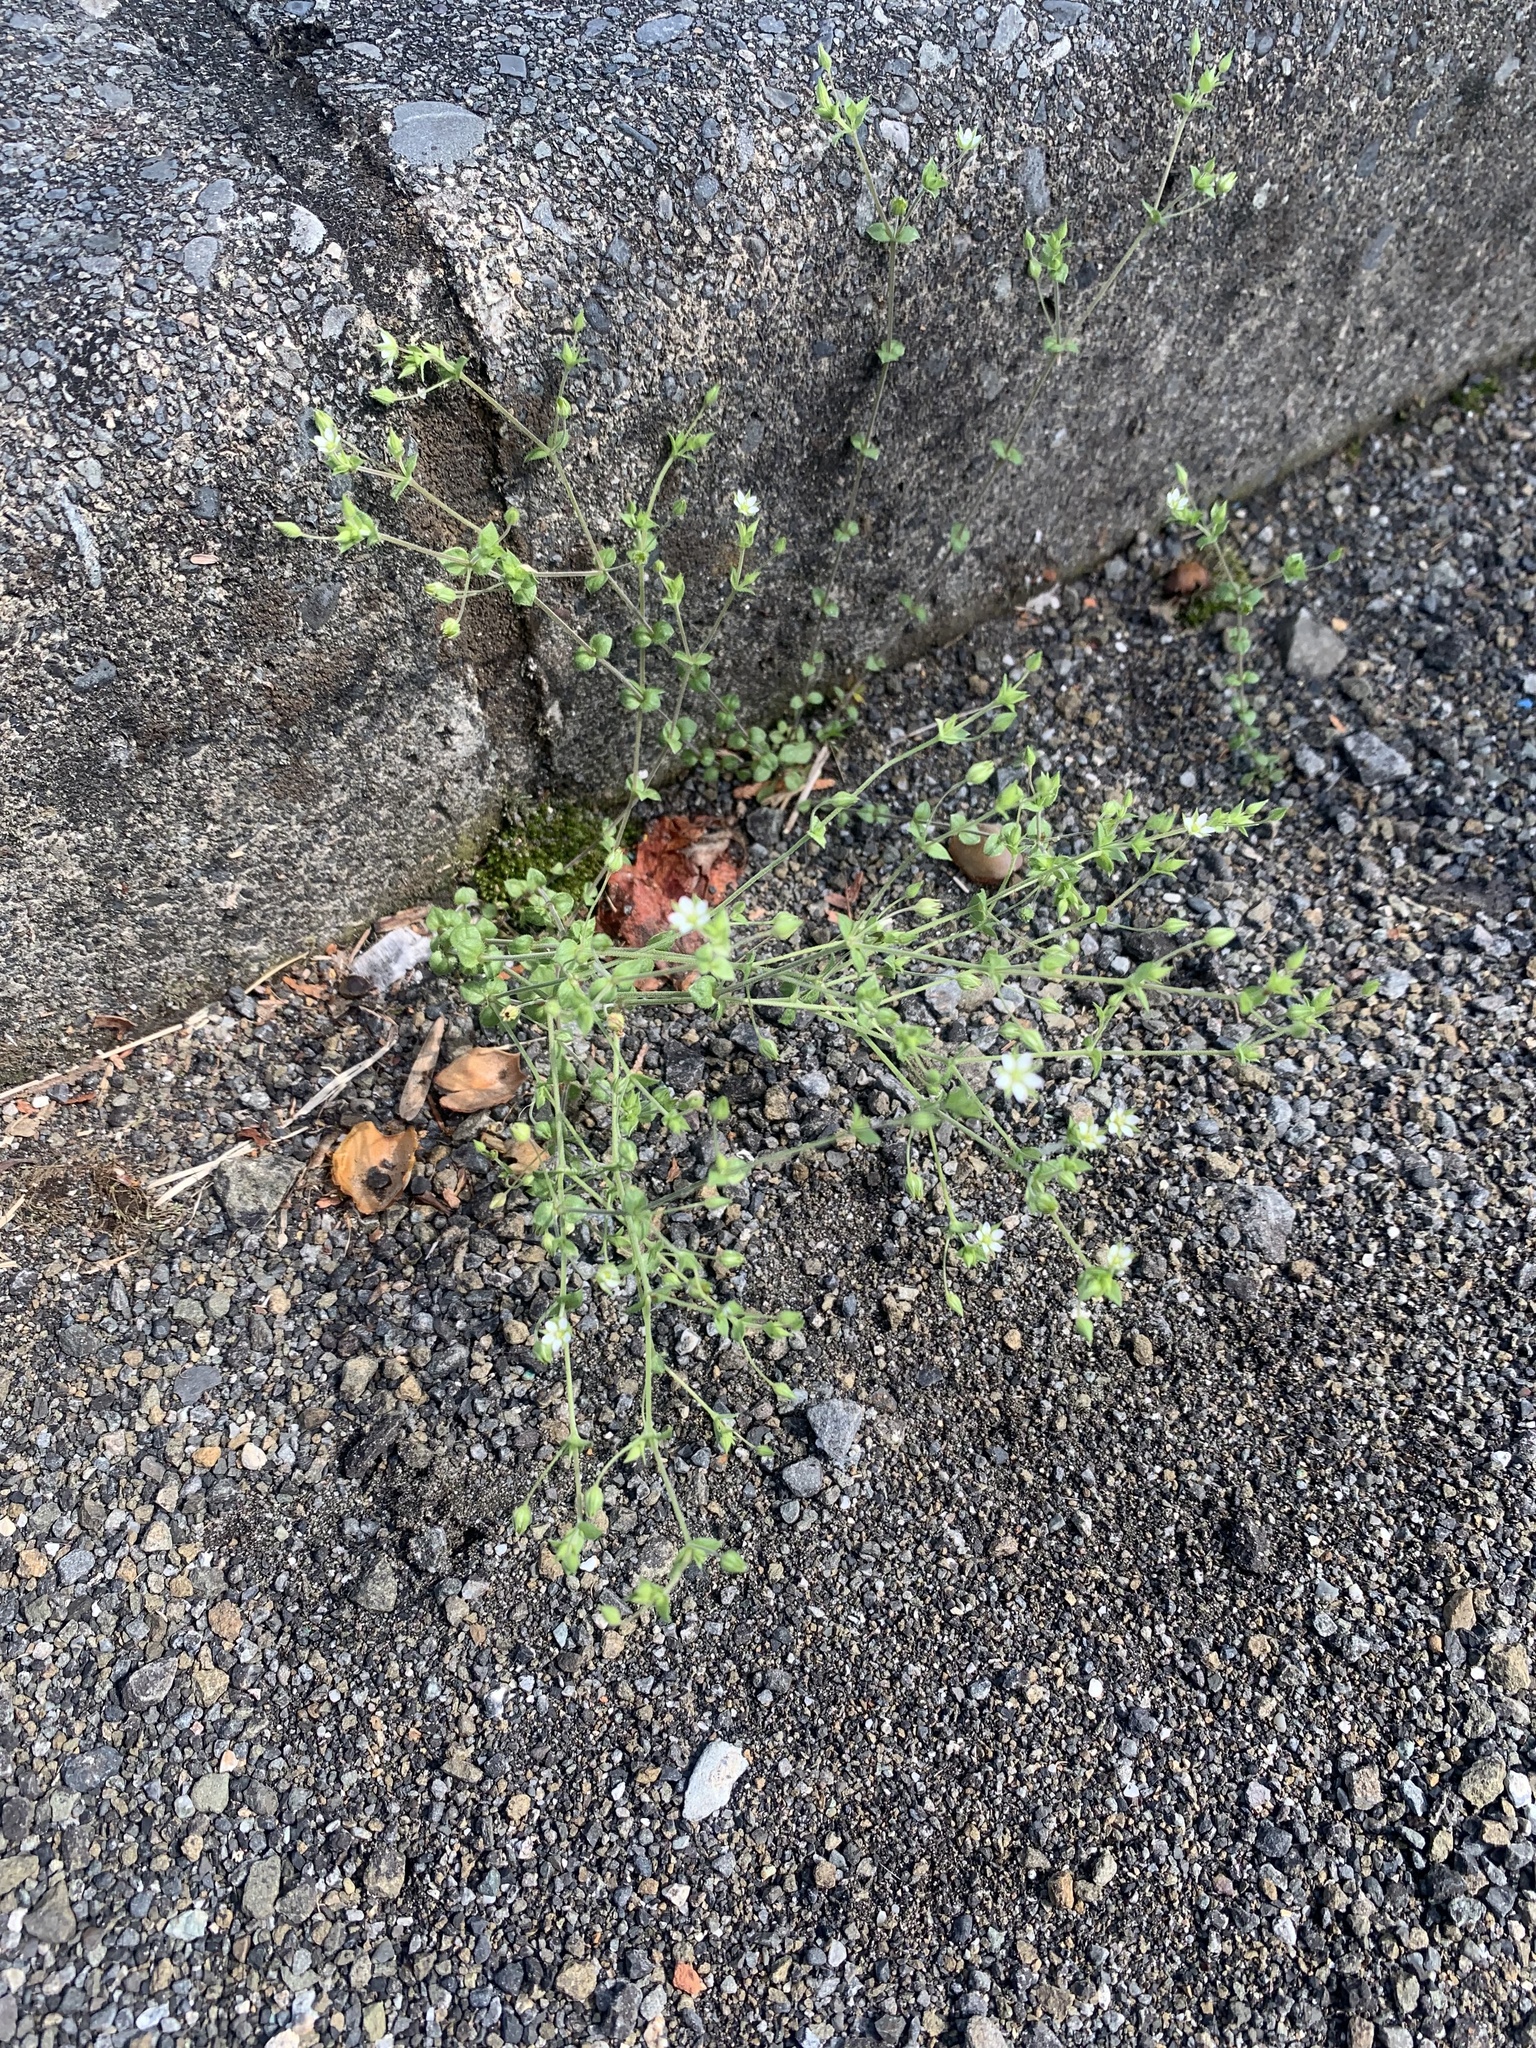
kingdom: Plantae
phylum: Tracheophyta
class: Magnoliopsida
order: Caryophyllales
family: Caryophyllaceae
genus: Arenaria
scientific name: Arenaria serpyllifolia
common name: Thyme-leaved sandwort
